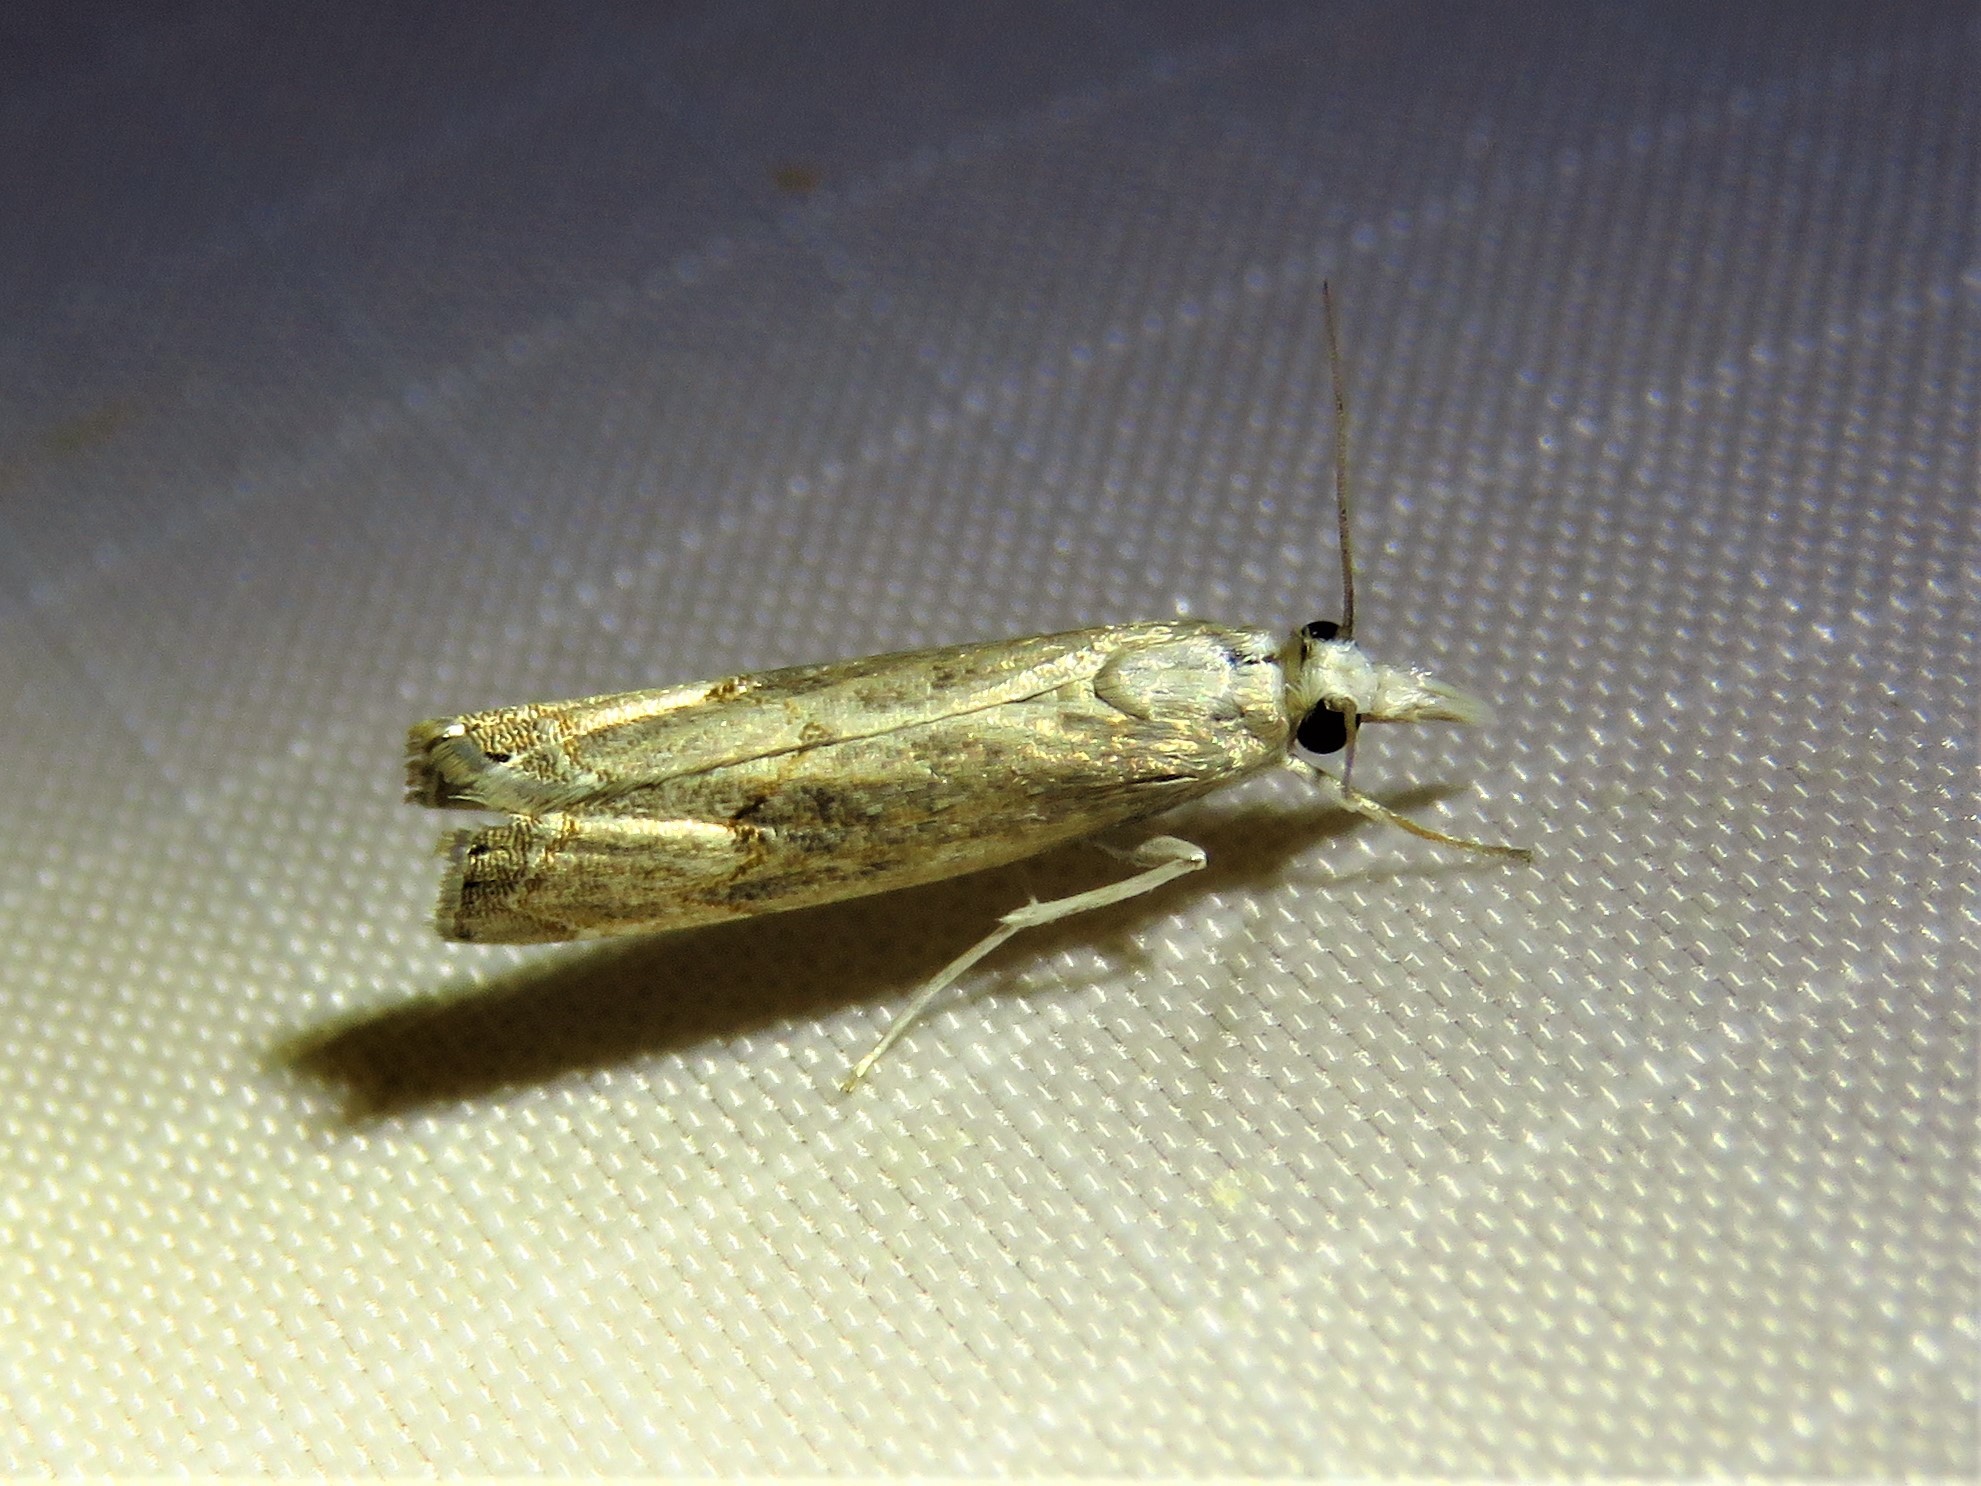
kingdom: Animalia
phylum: Arthropoda
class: Insecta
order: Lepidoptera
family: Crambidae
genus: Parapediasia
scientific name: Parapediasia teterellus
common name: Bluegrass webworm moth
